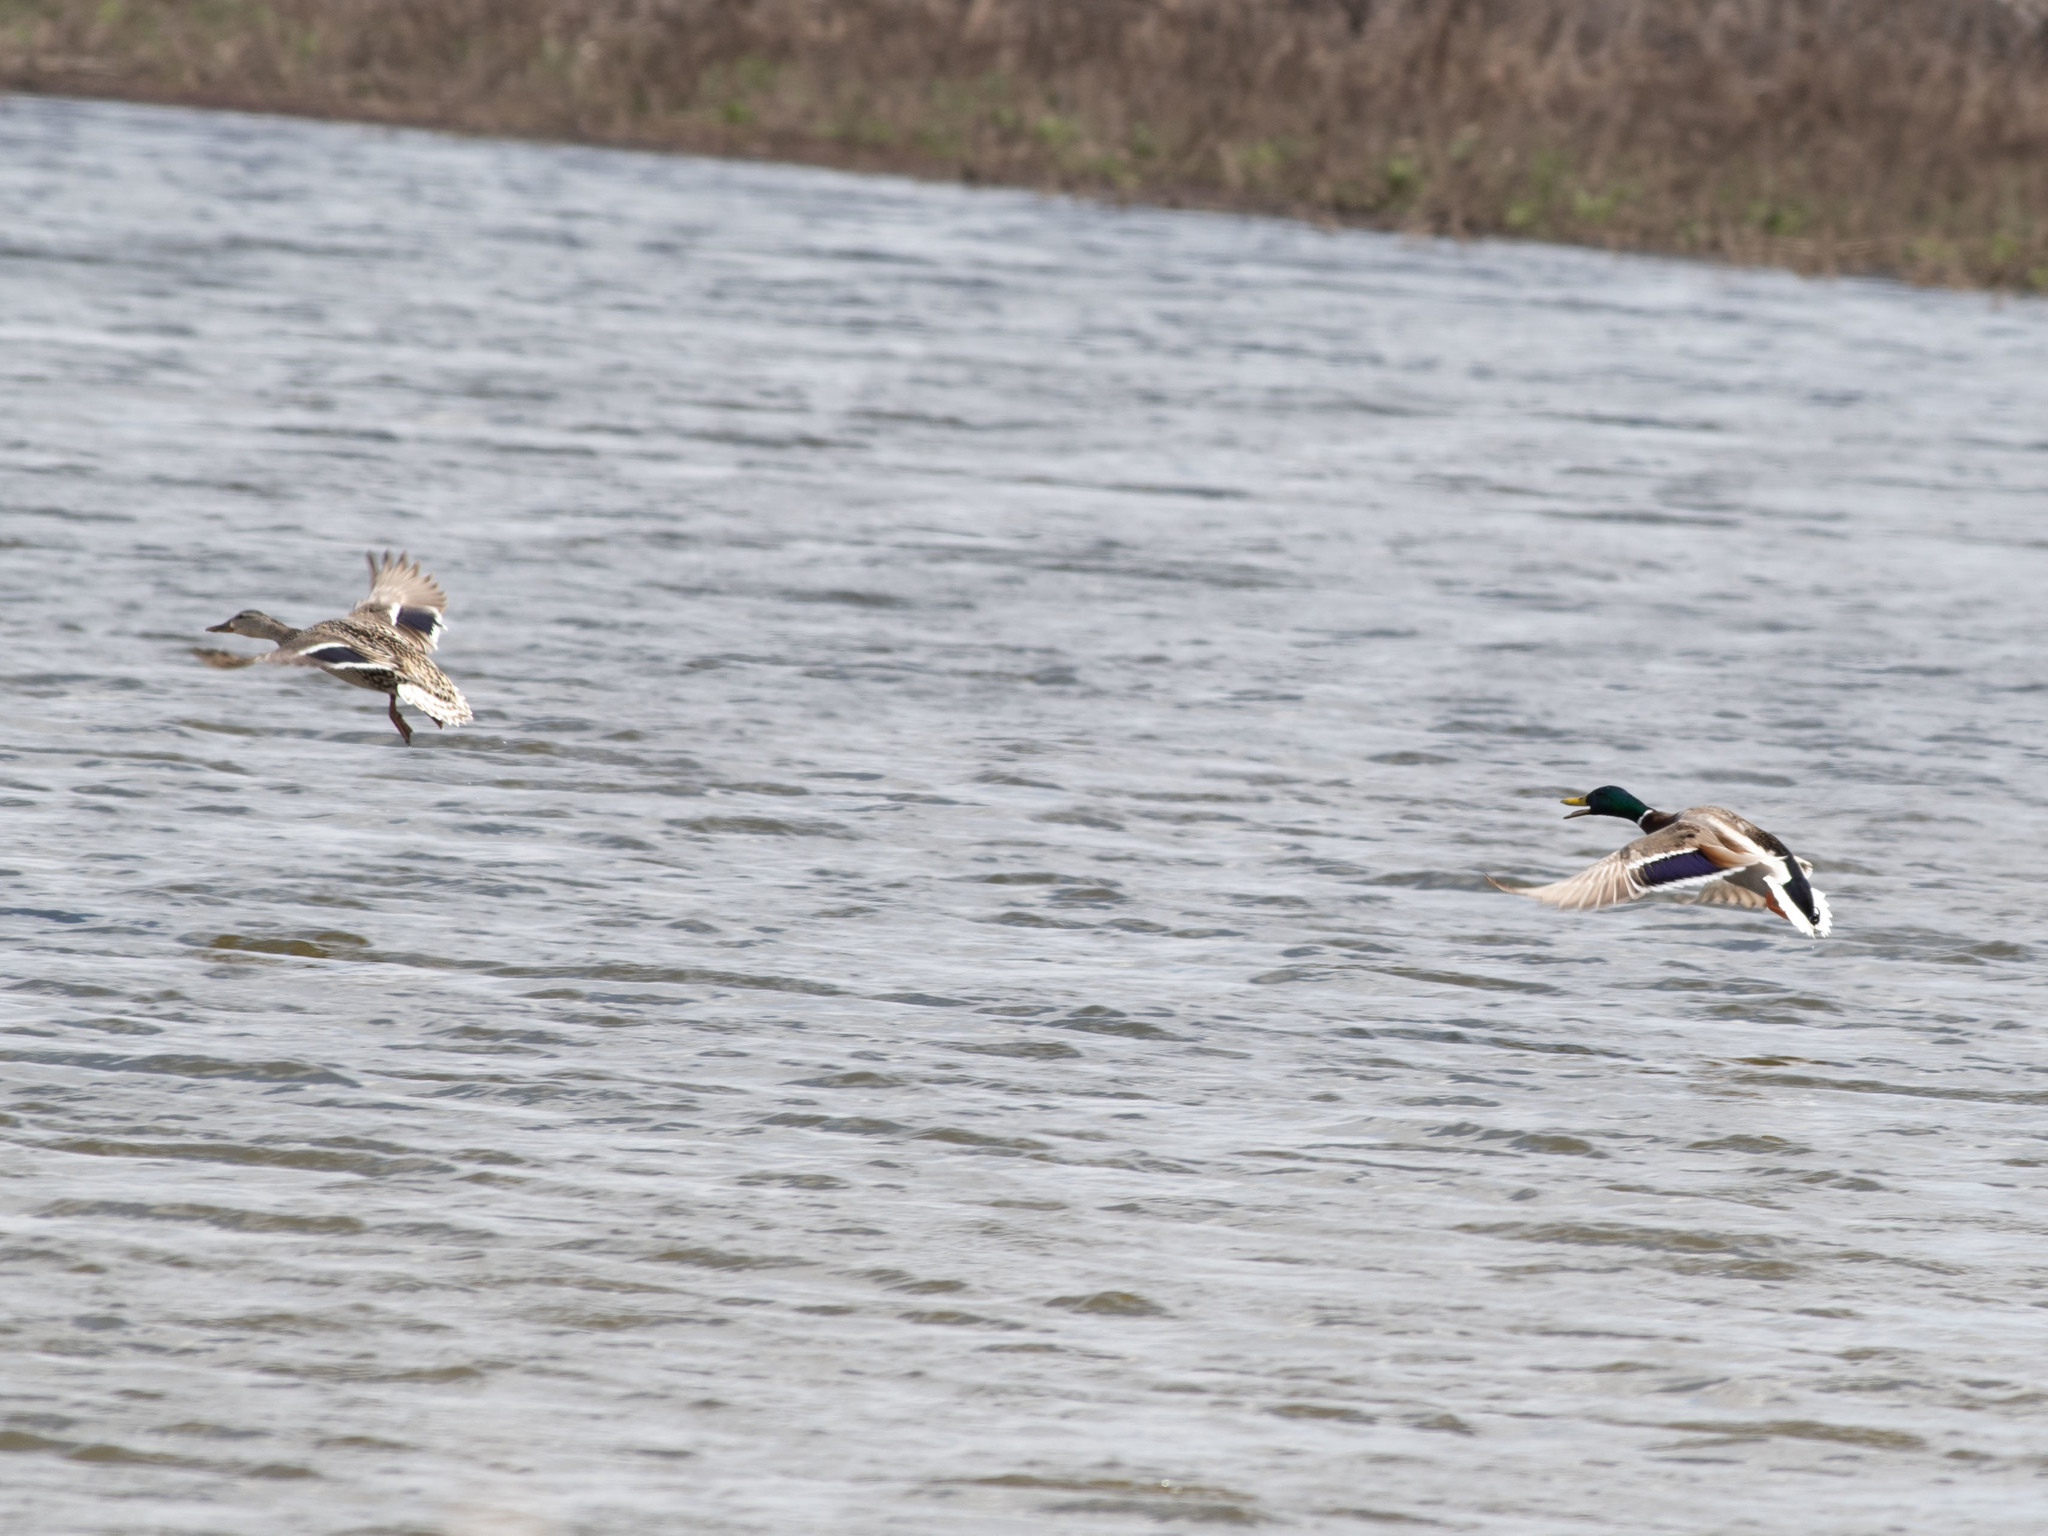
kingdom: Animalia
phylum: Chordata
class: Aves
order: Anseriformes
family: Anatidae
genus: Anas
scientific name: Anas platyrhynchos
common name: Mallard
